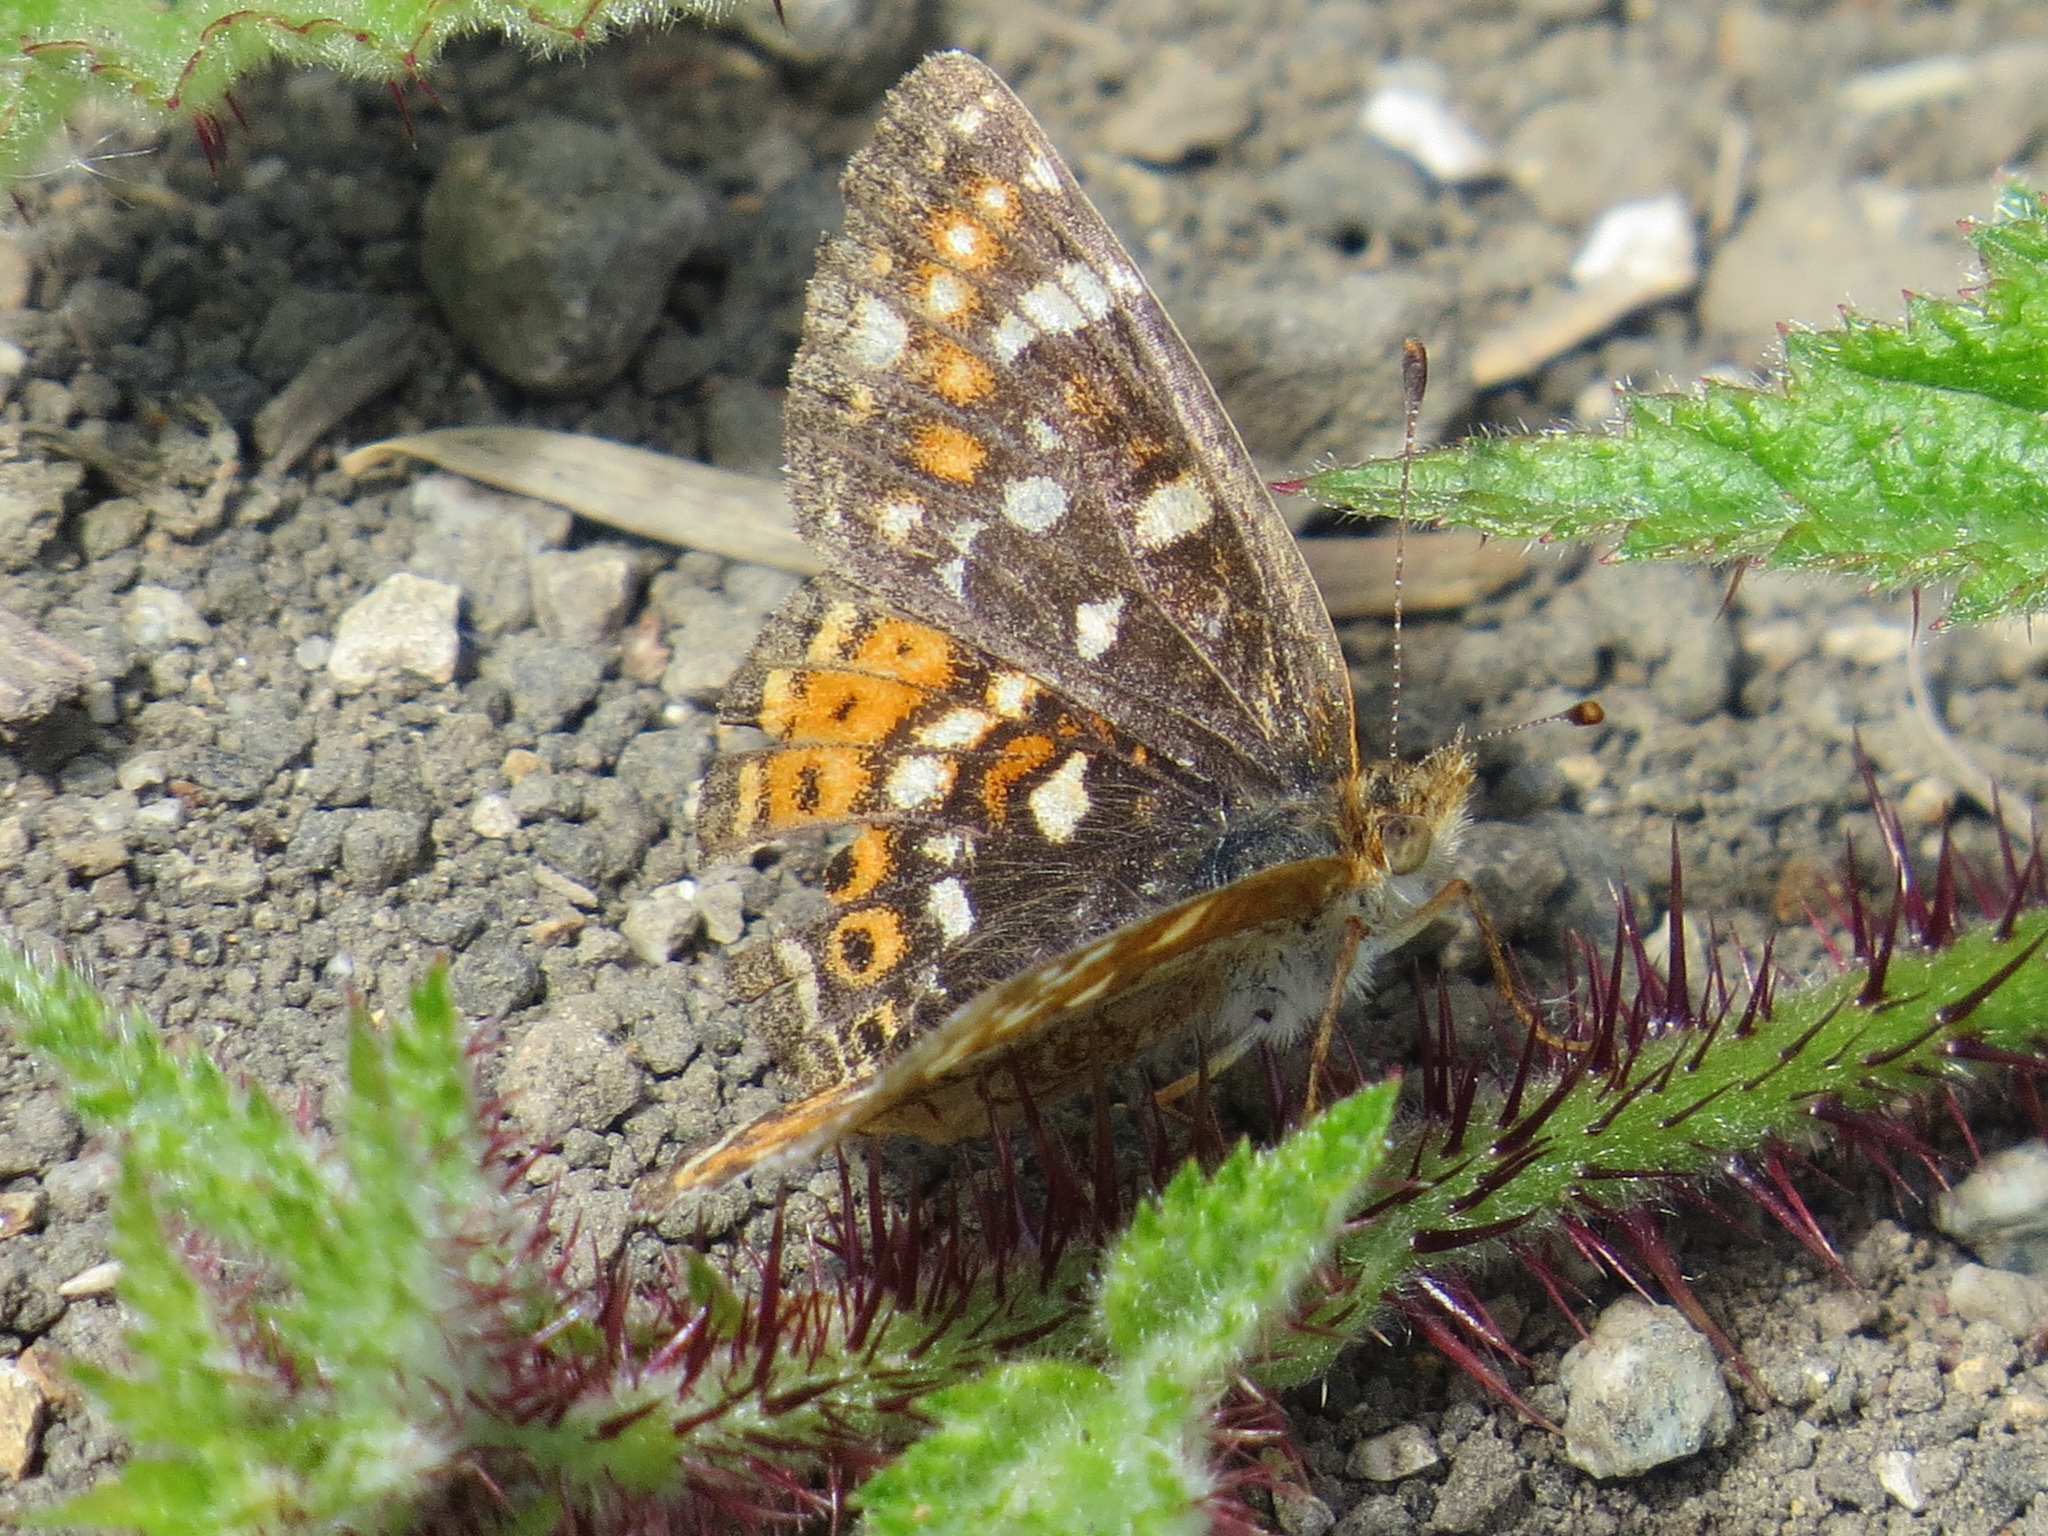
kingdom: Animalia
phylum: Arthropoda
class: Insecta
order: Lepidoptera
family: Nymphalidae
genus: Phyciodes
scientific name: Phyciodes tharos
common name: Pearl crescent
